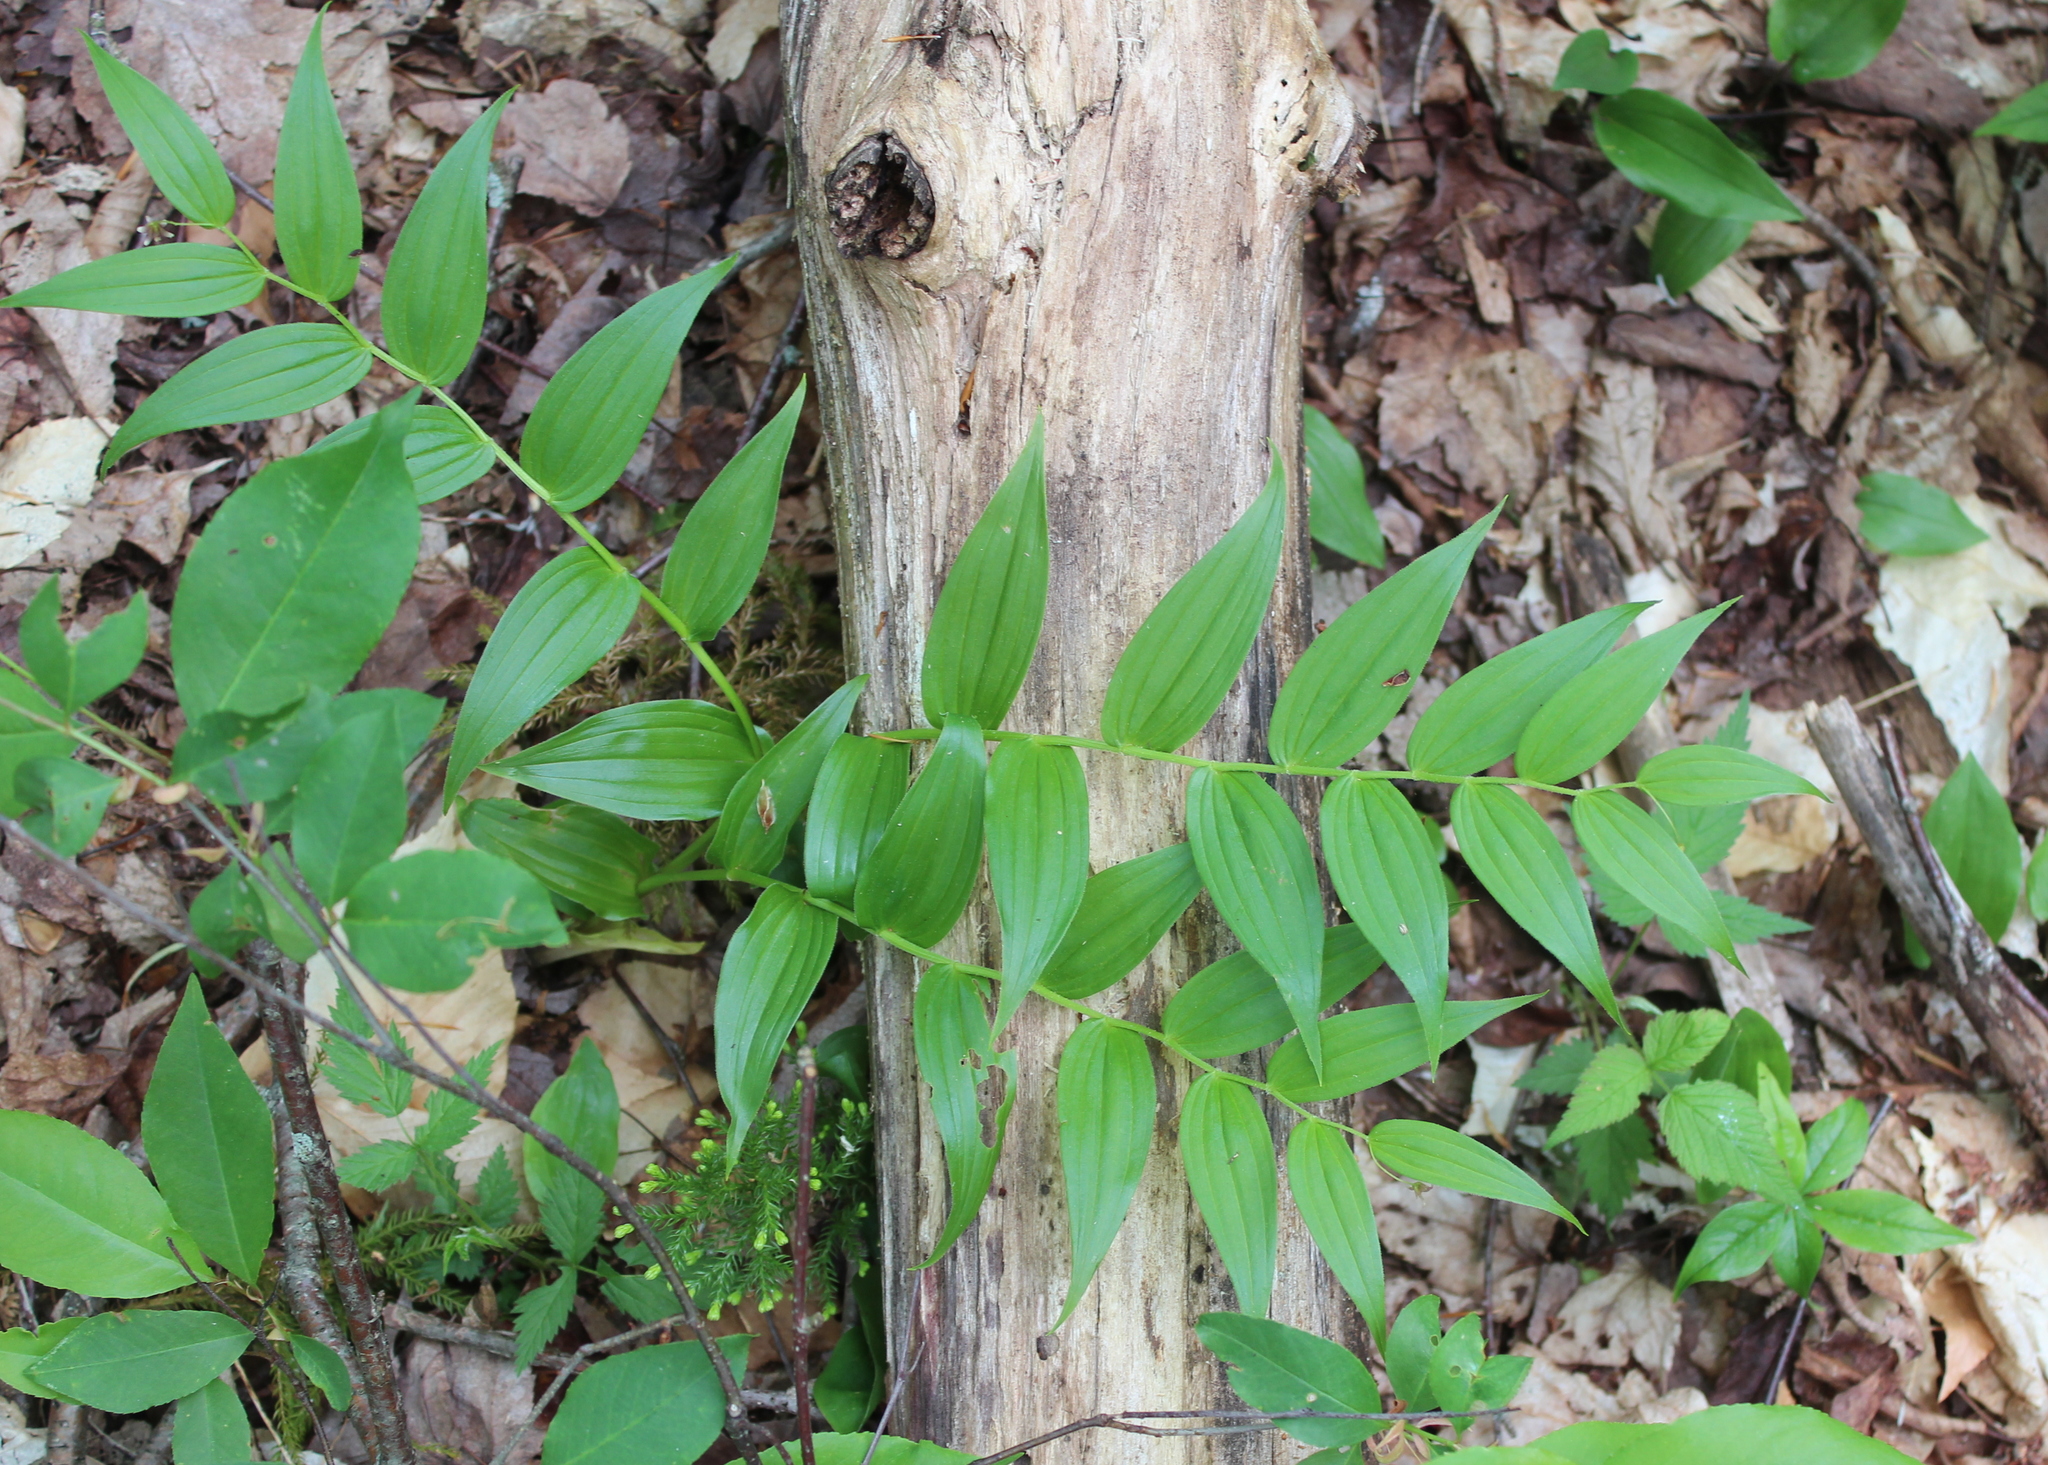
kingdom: Plantae
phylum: Tracheophyta
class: Liliopsida
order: Liliales
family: Liliaceae
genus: Streptopus
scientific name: Streptopus lanceolatus
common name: Rose mandarin
